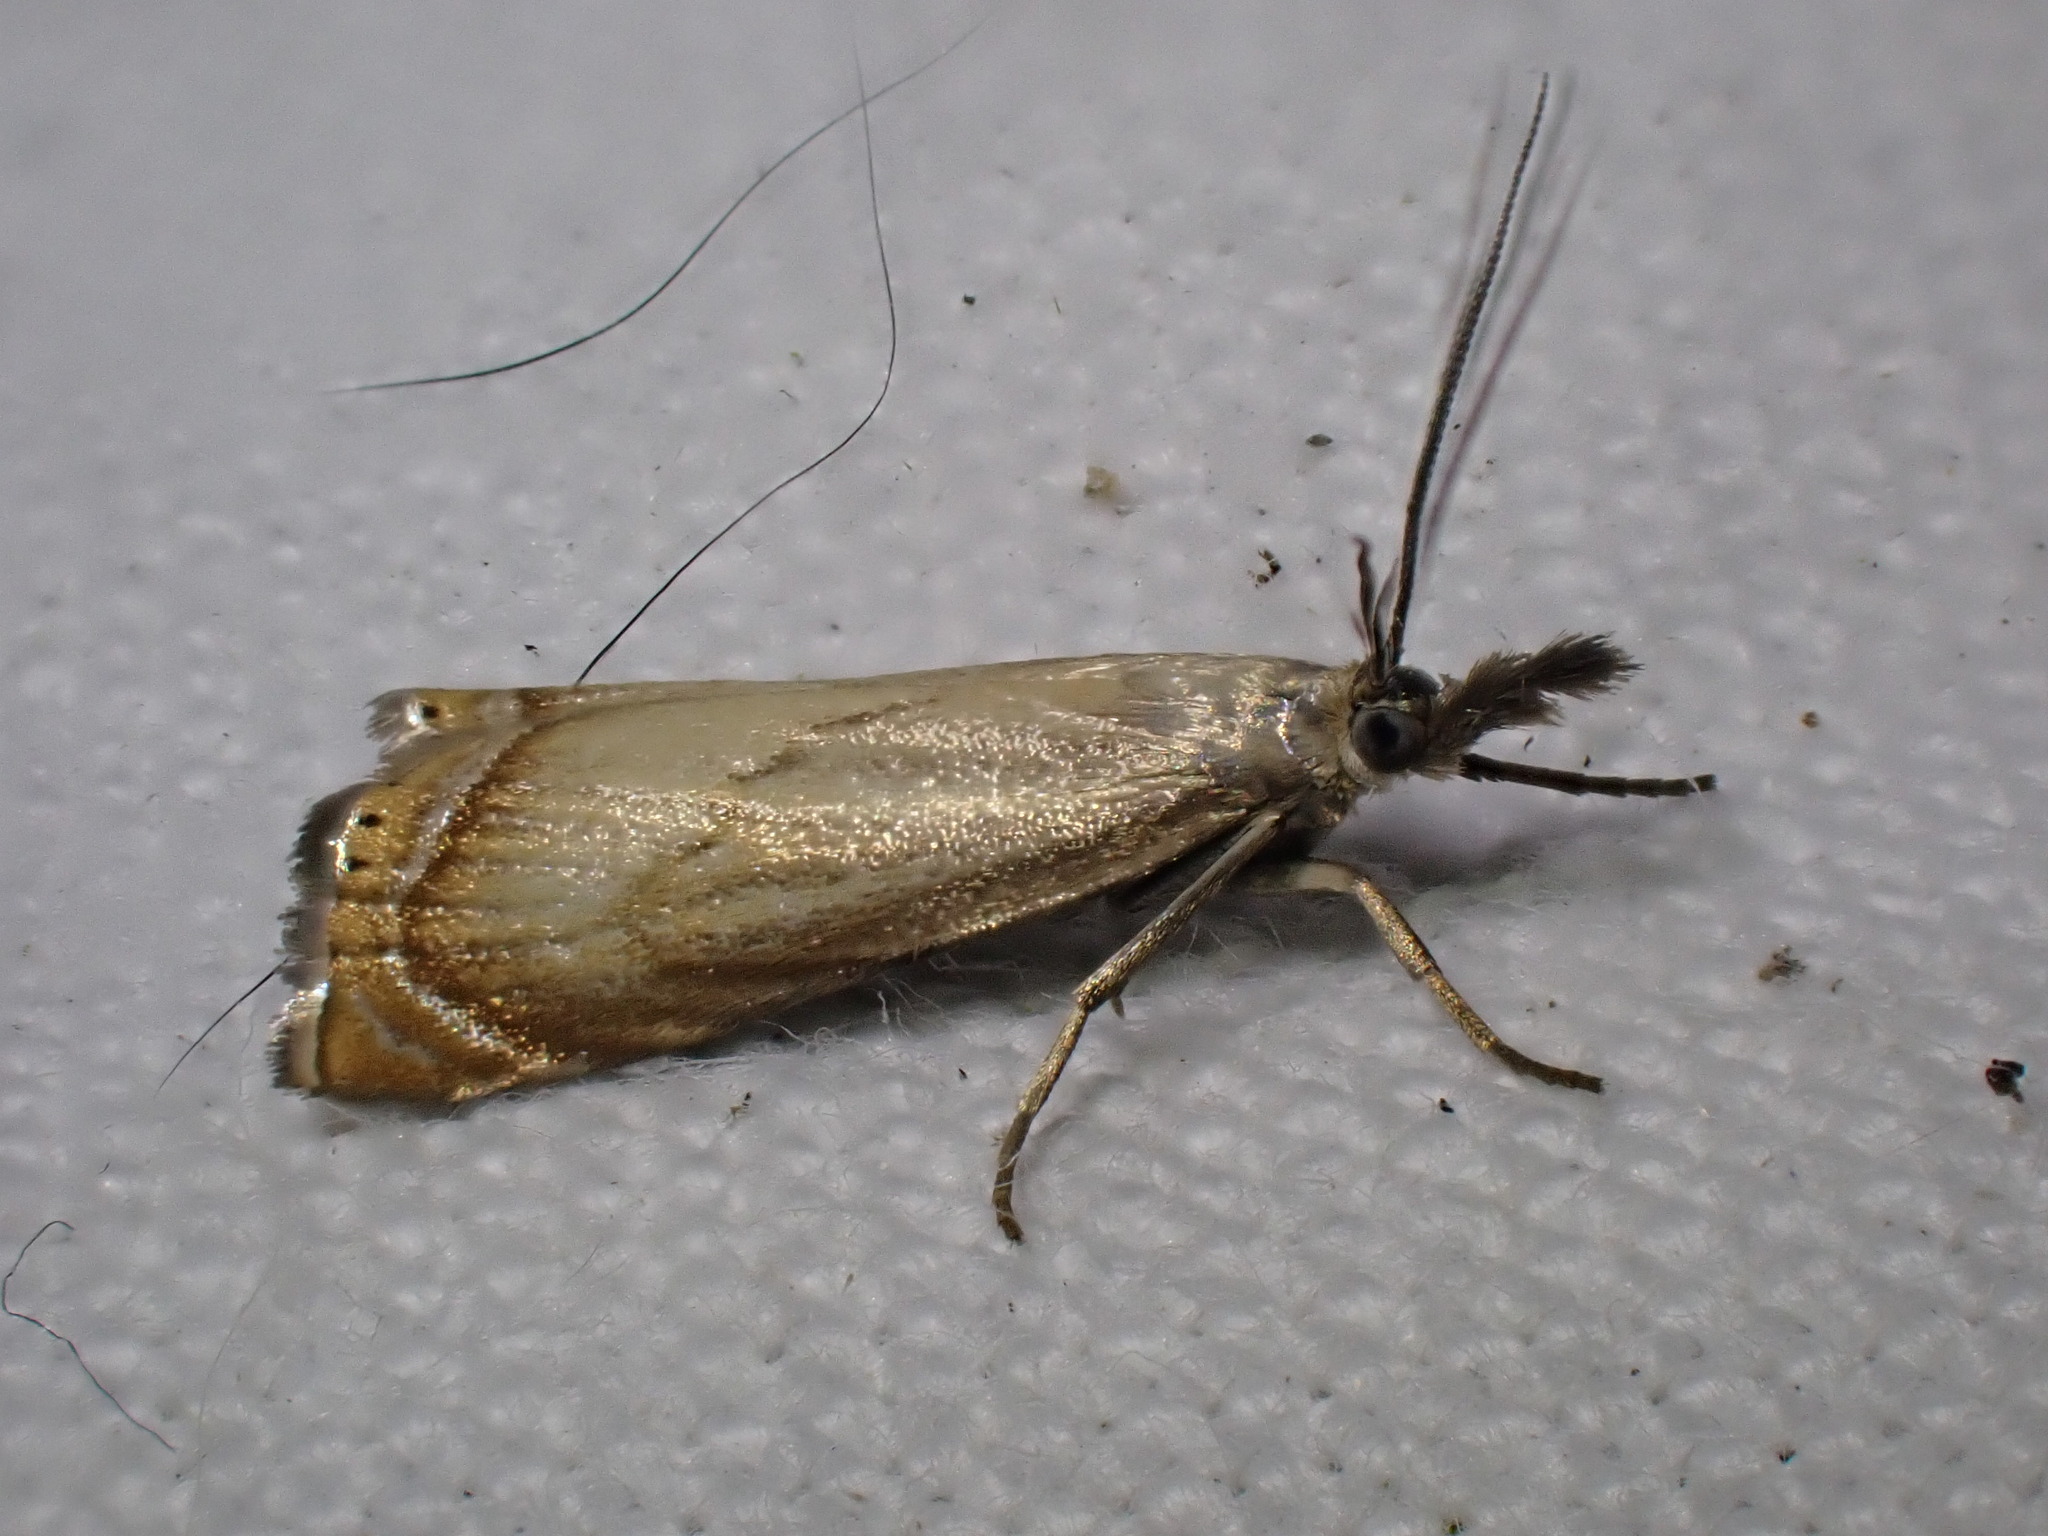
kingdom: Animalia
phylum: Arthropoda
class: Insecta
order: Lepidoptera
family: Crambidae
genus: Chrysoteuchia
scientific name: Chrysoteuchia culmella
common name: Garden grass-veneer
